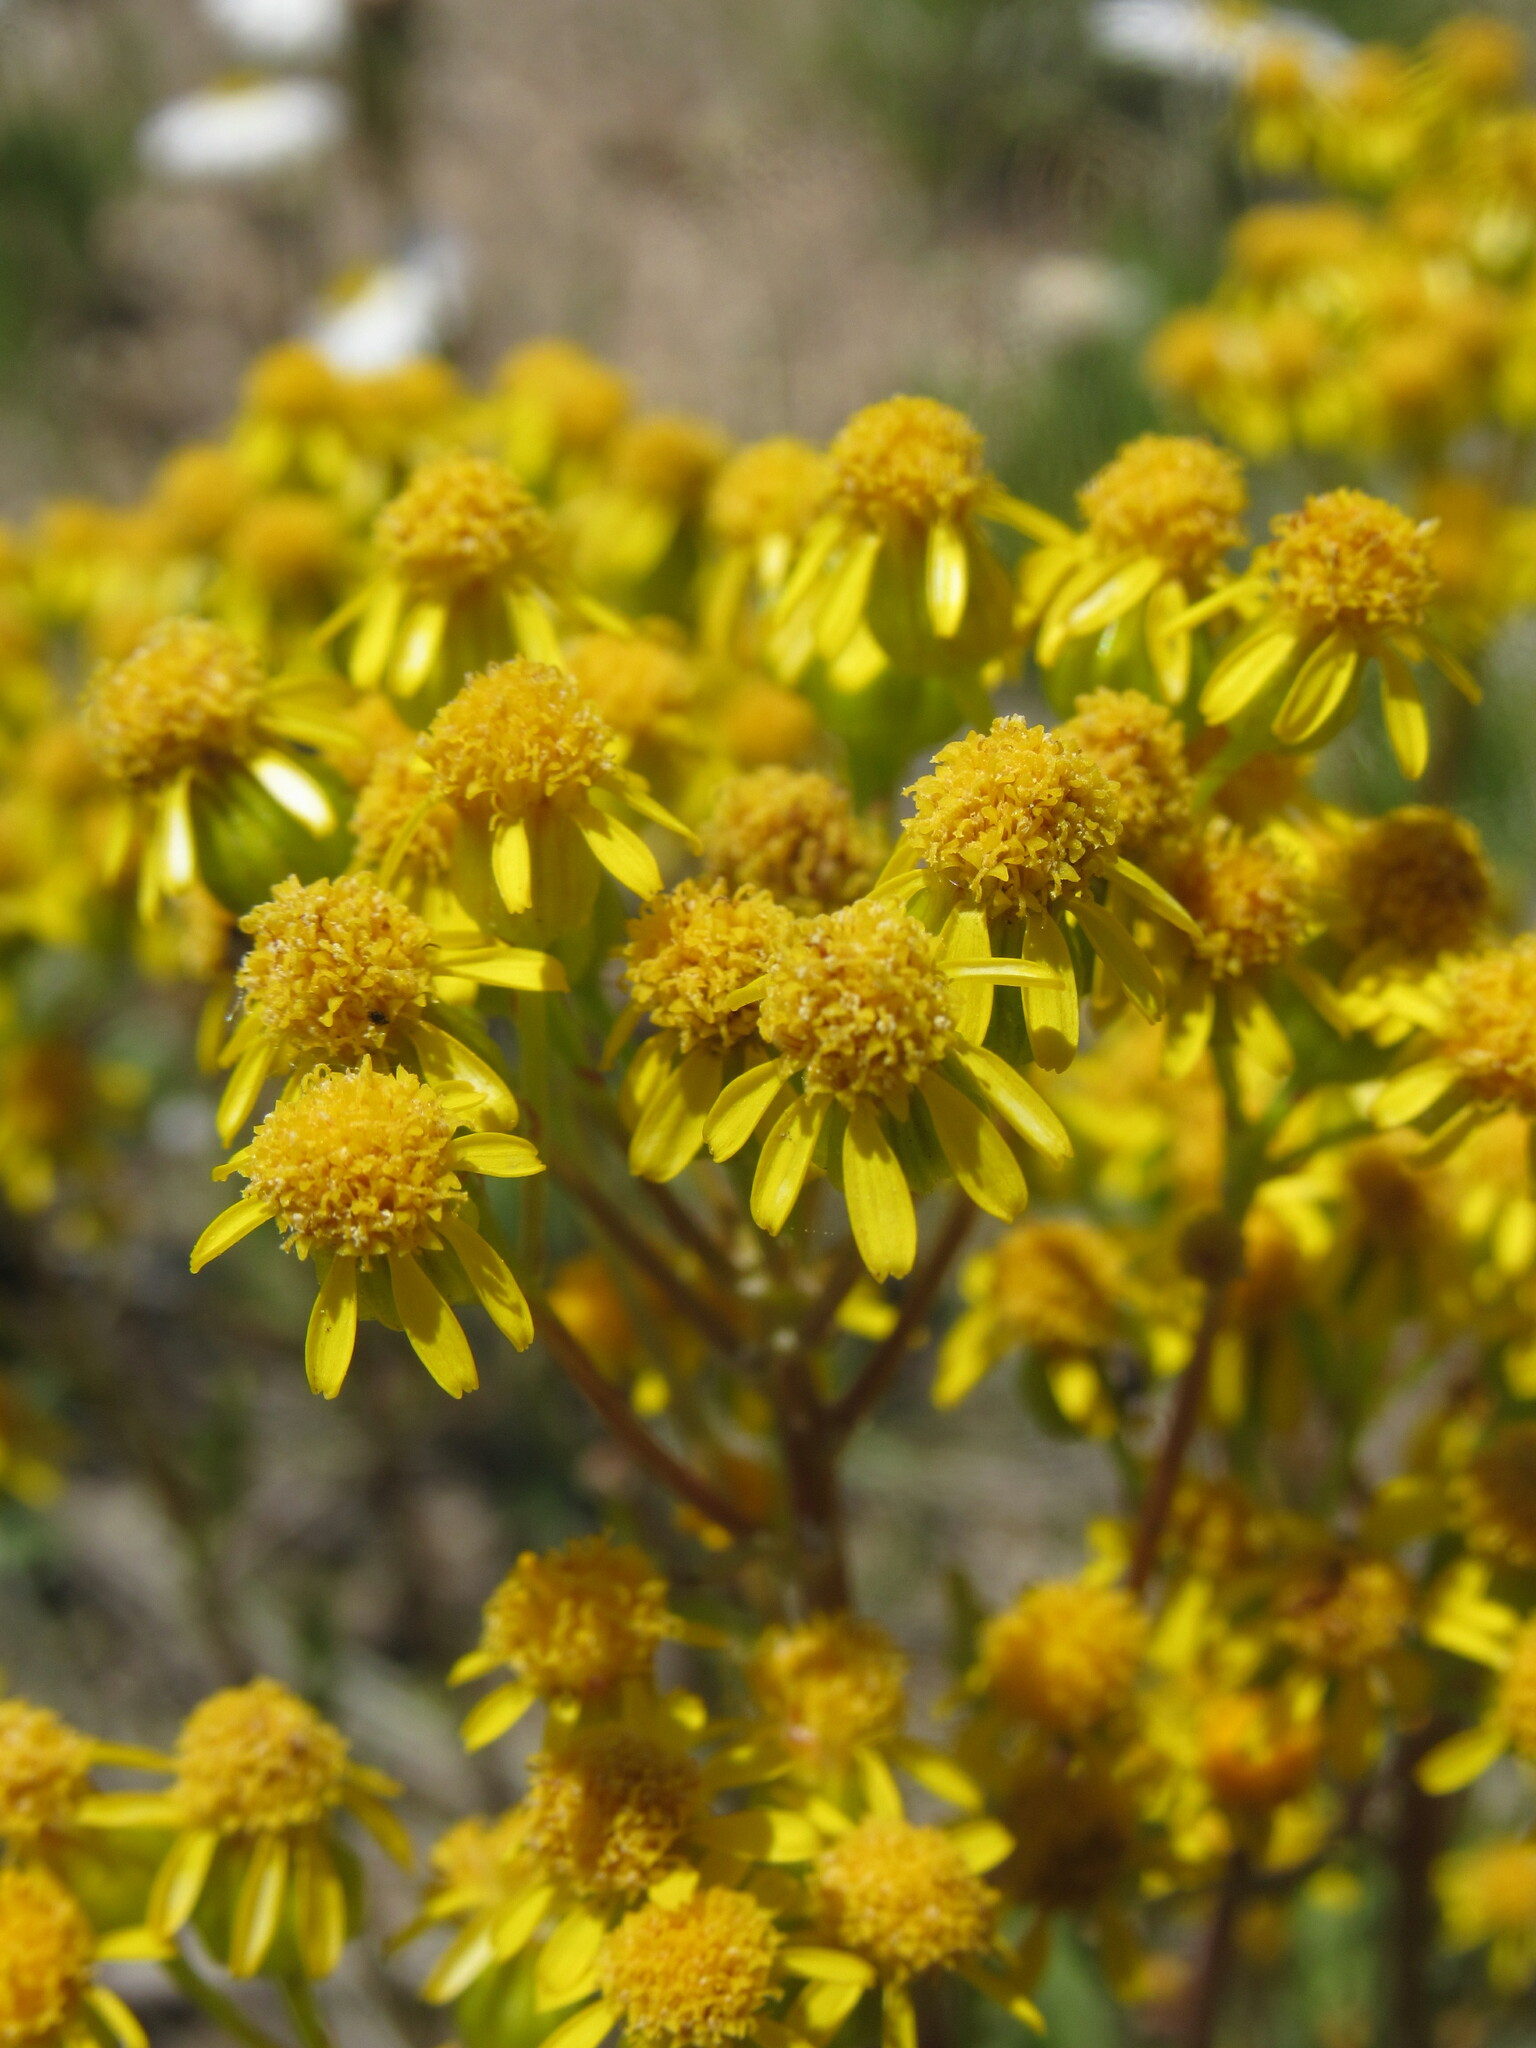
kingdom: Plantae
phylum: Tracheophyta
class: Magnoliopsida
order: Asterales
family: Asteraceae
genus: Packera
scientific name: Packera fendleri
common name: Notch-leaf butterweed
